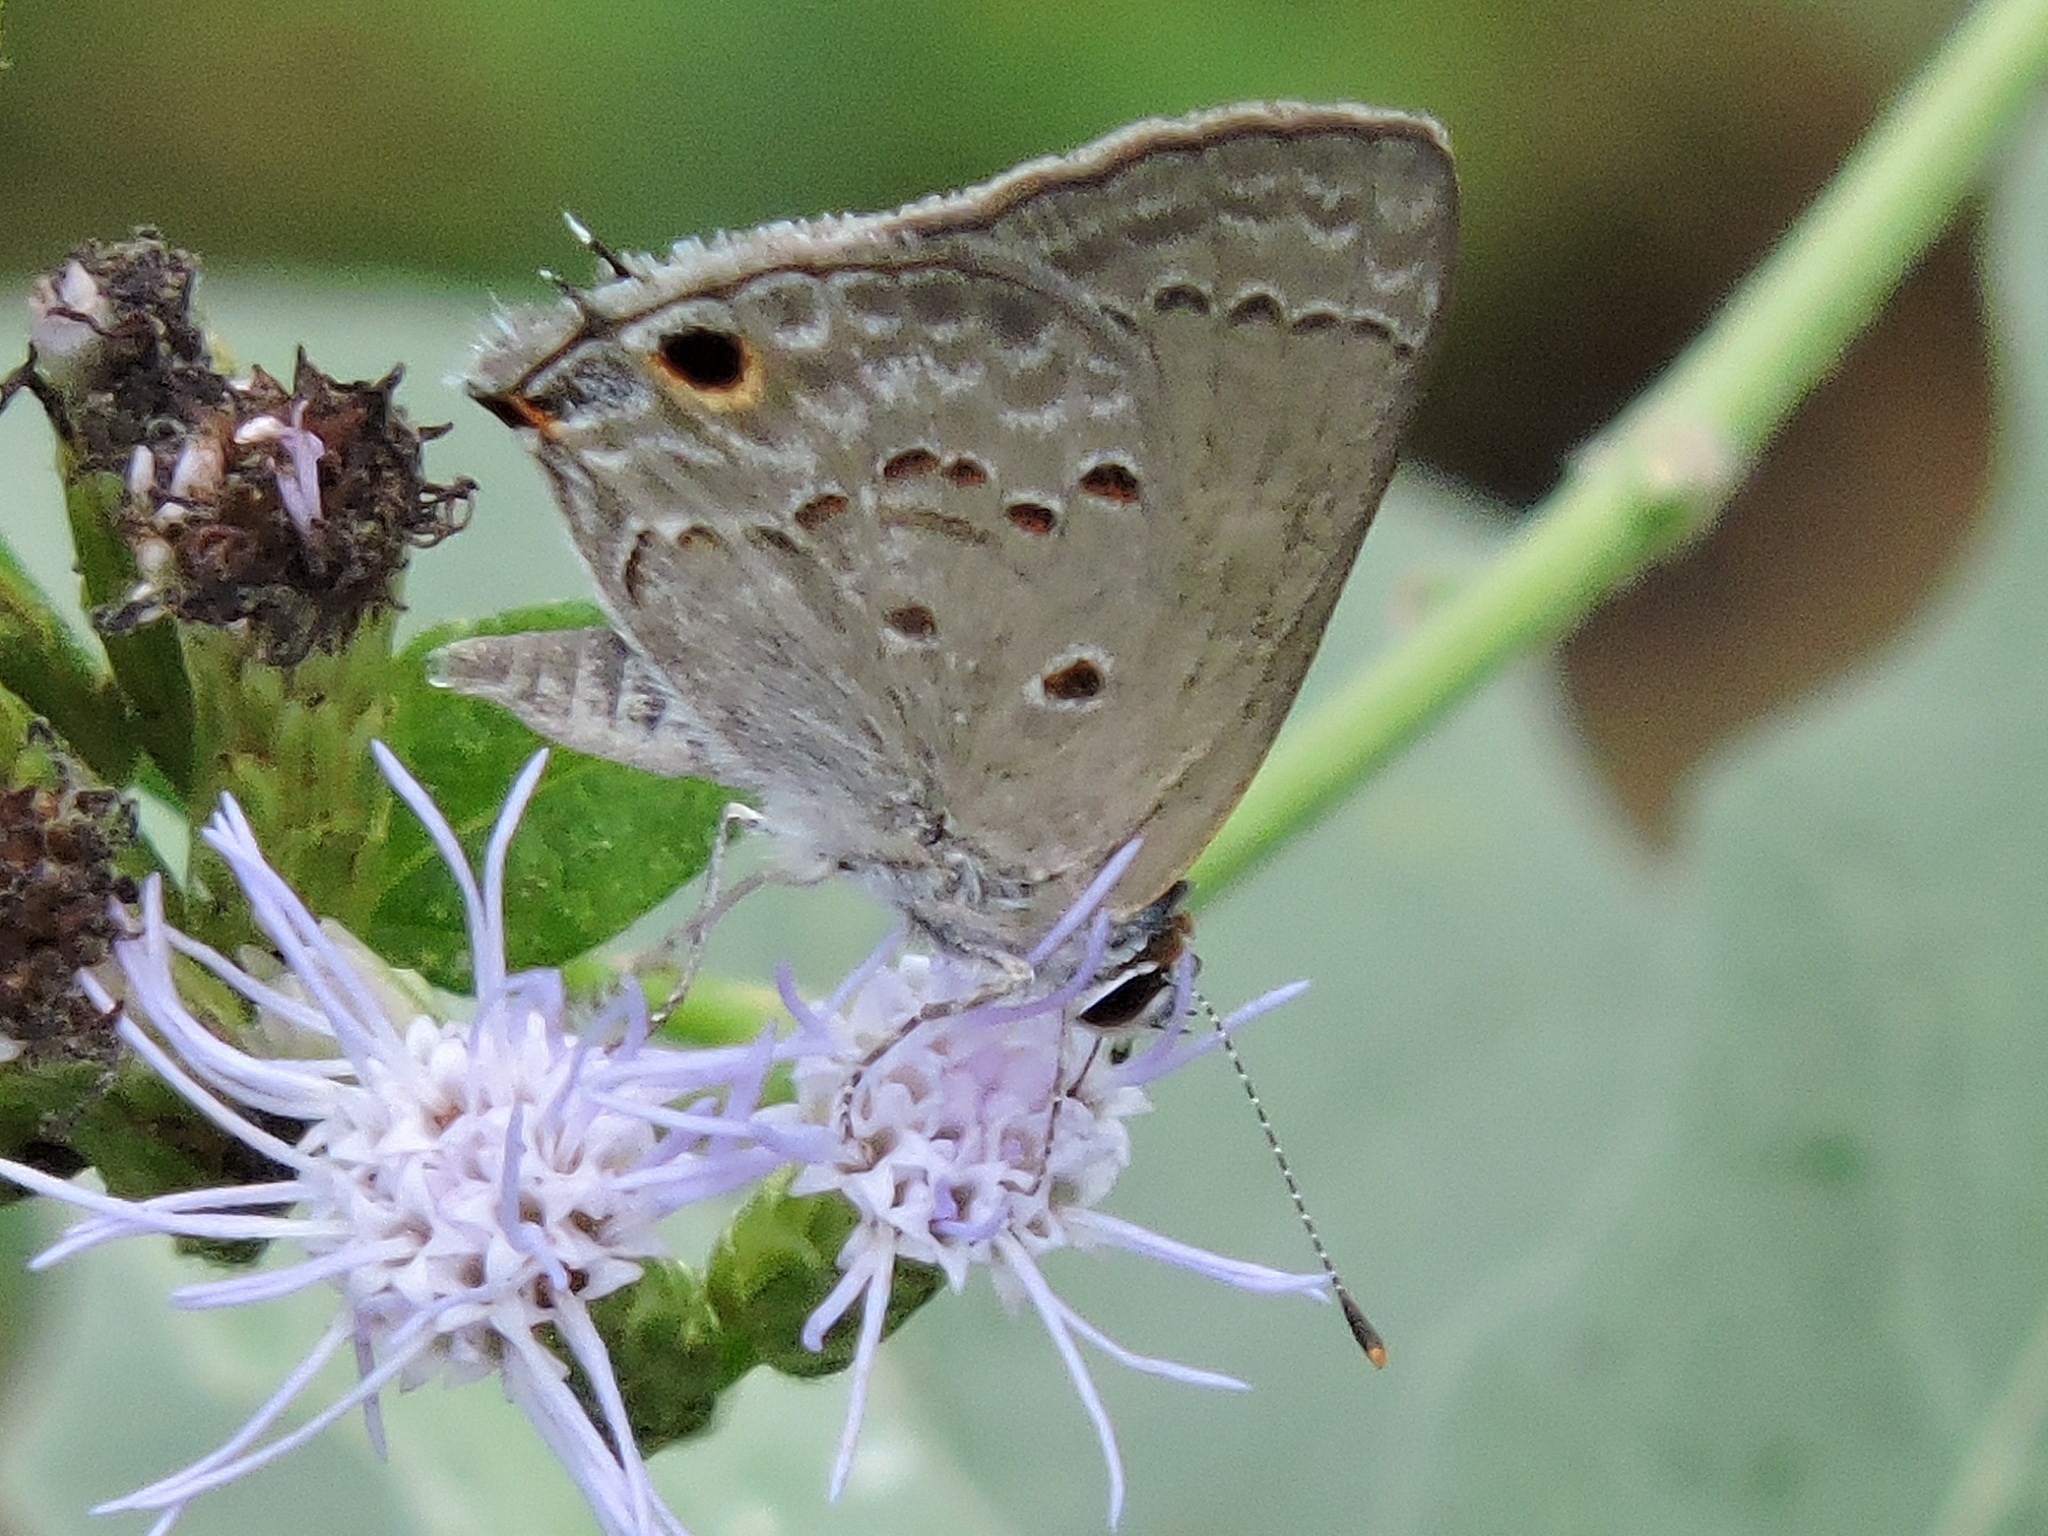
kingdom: Animalia
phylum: Arthropoda
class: Insecta
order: Lepidoptera
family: Lycaenidae
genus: Callicista
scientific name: Callicista columella
